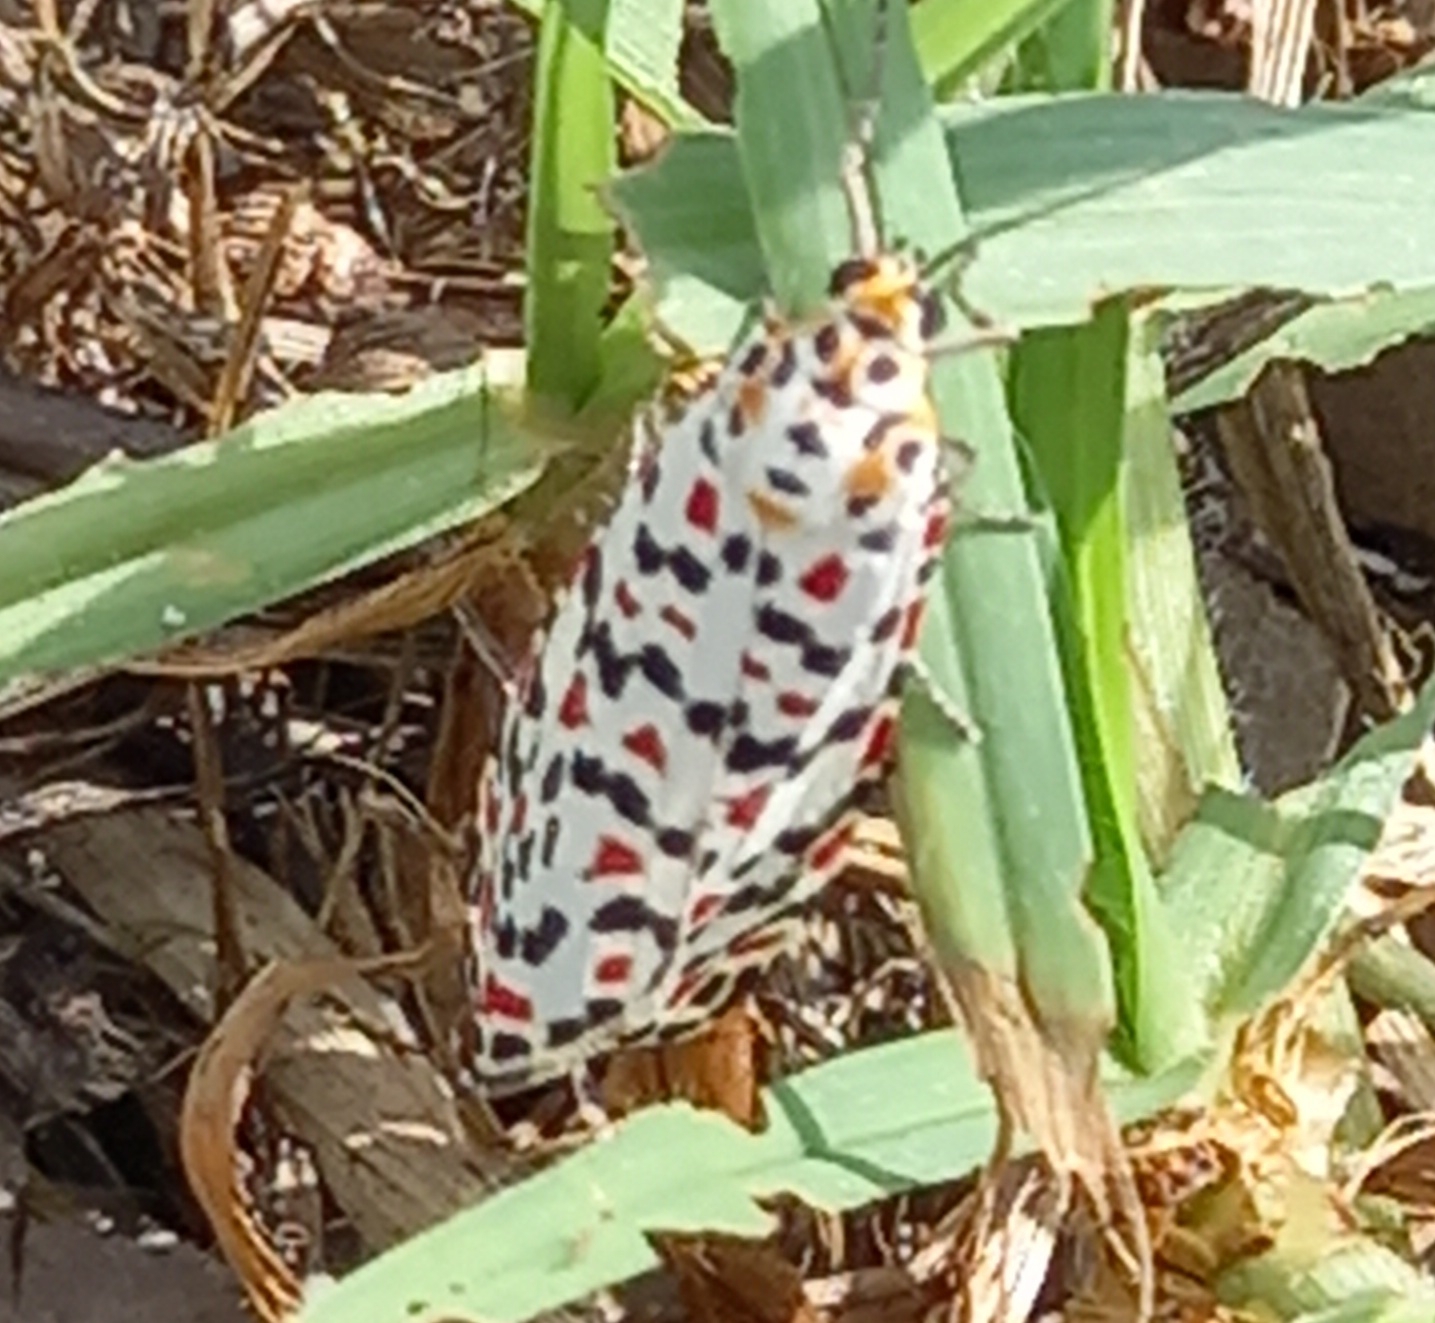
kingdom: Animalia
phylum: Arthropoda
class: Insecta
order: Lepidoptera
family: Erebidae
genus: Utetheisa
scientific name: Utetheisa pulchella
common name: Crimson speckled
